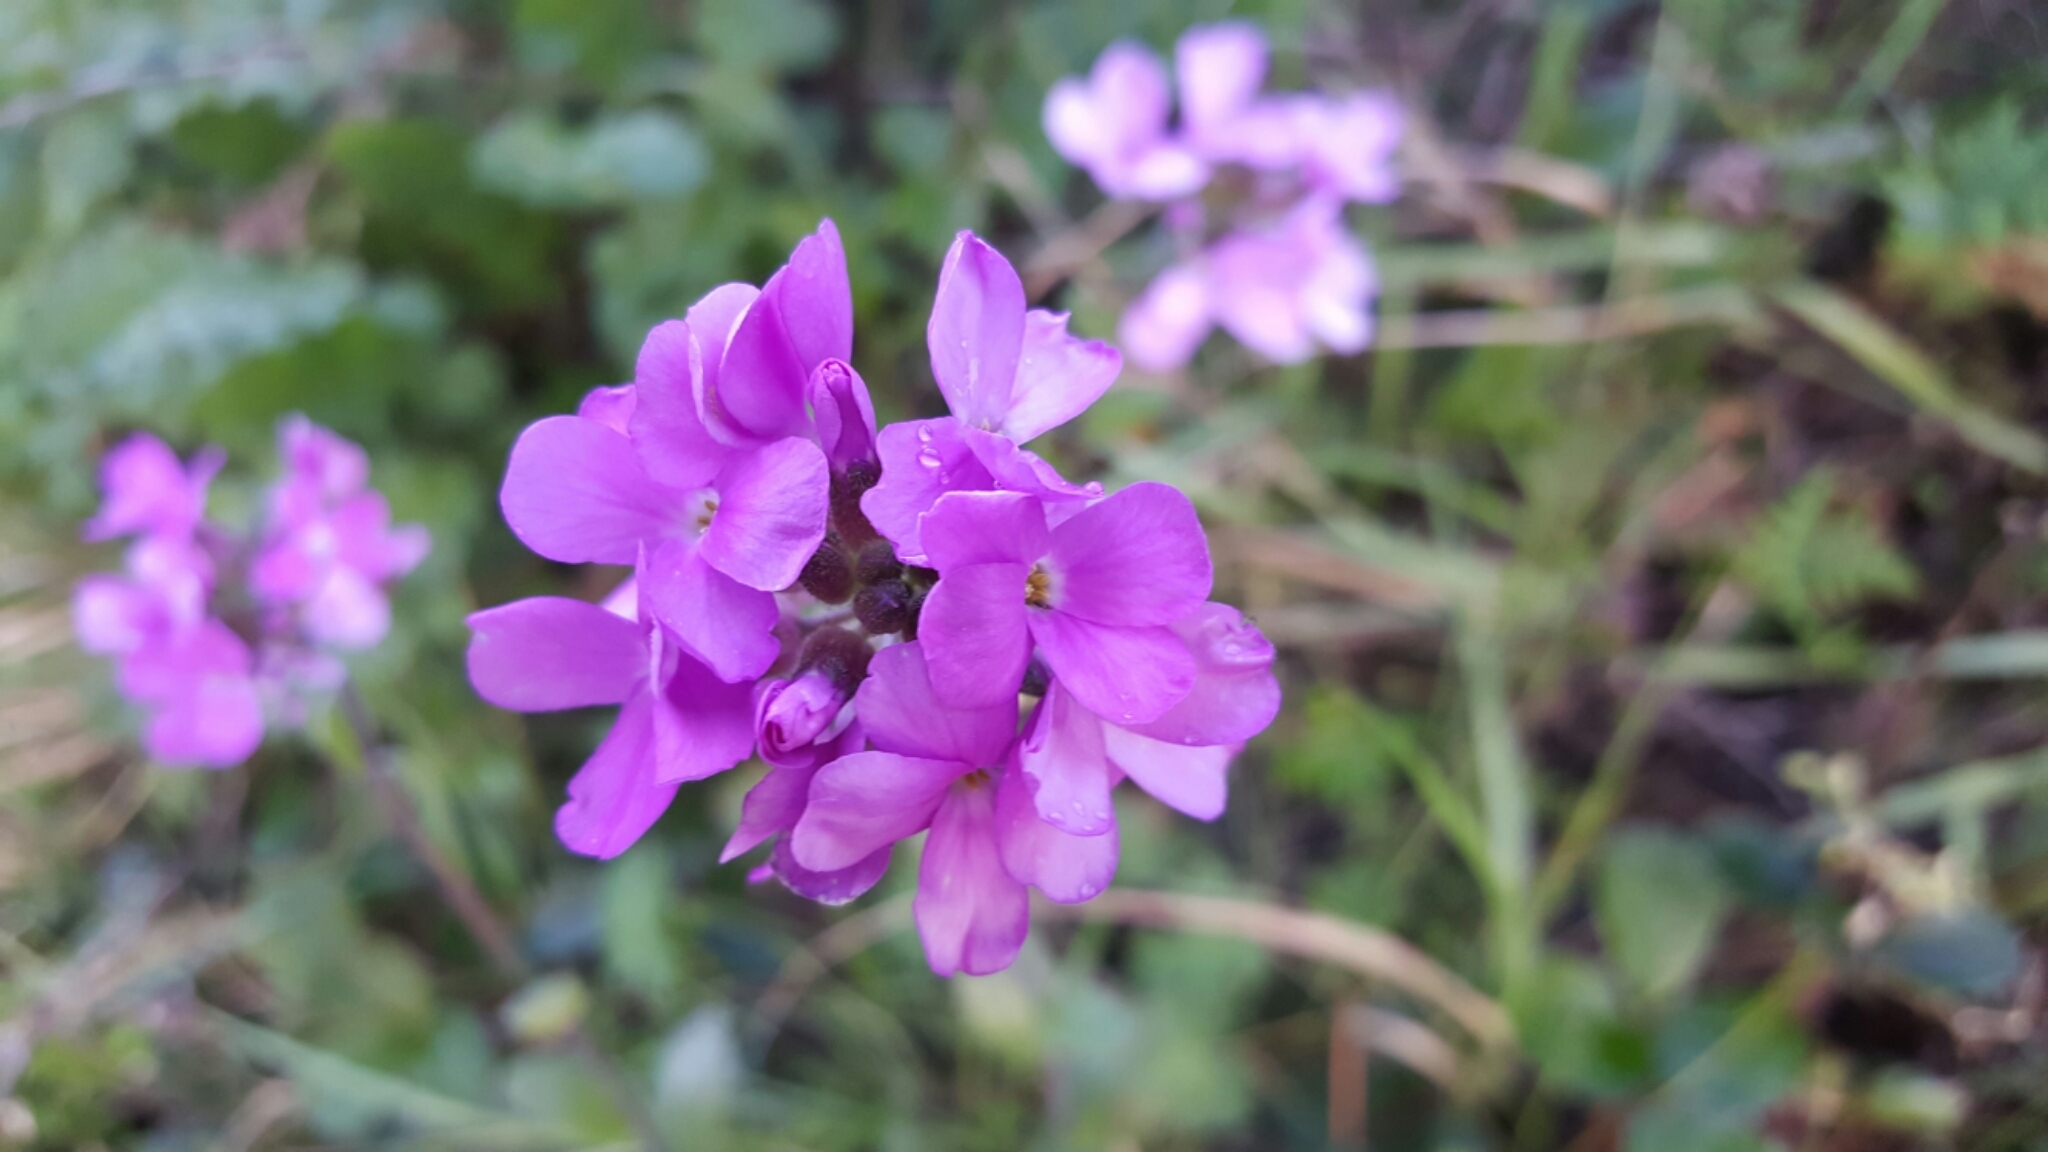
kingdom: Plantae
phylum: Tracheophyta
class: Magnoliopsida
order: Brassicales
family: Brassicaceae
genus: Arabis
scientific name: Arabis blepharophylla
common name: Rose rockcress
